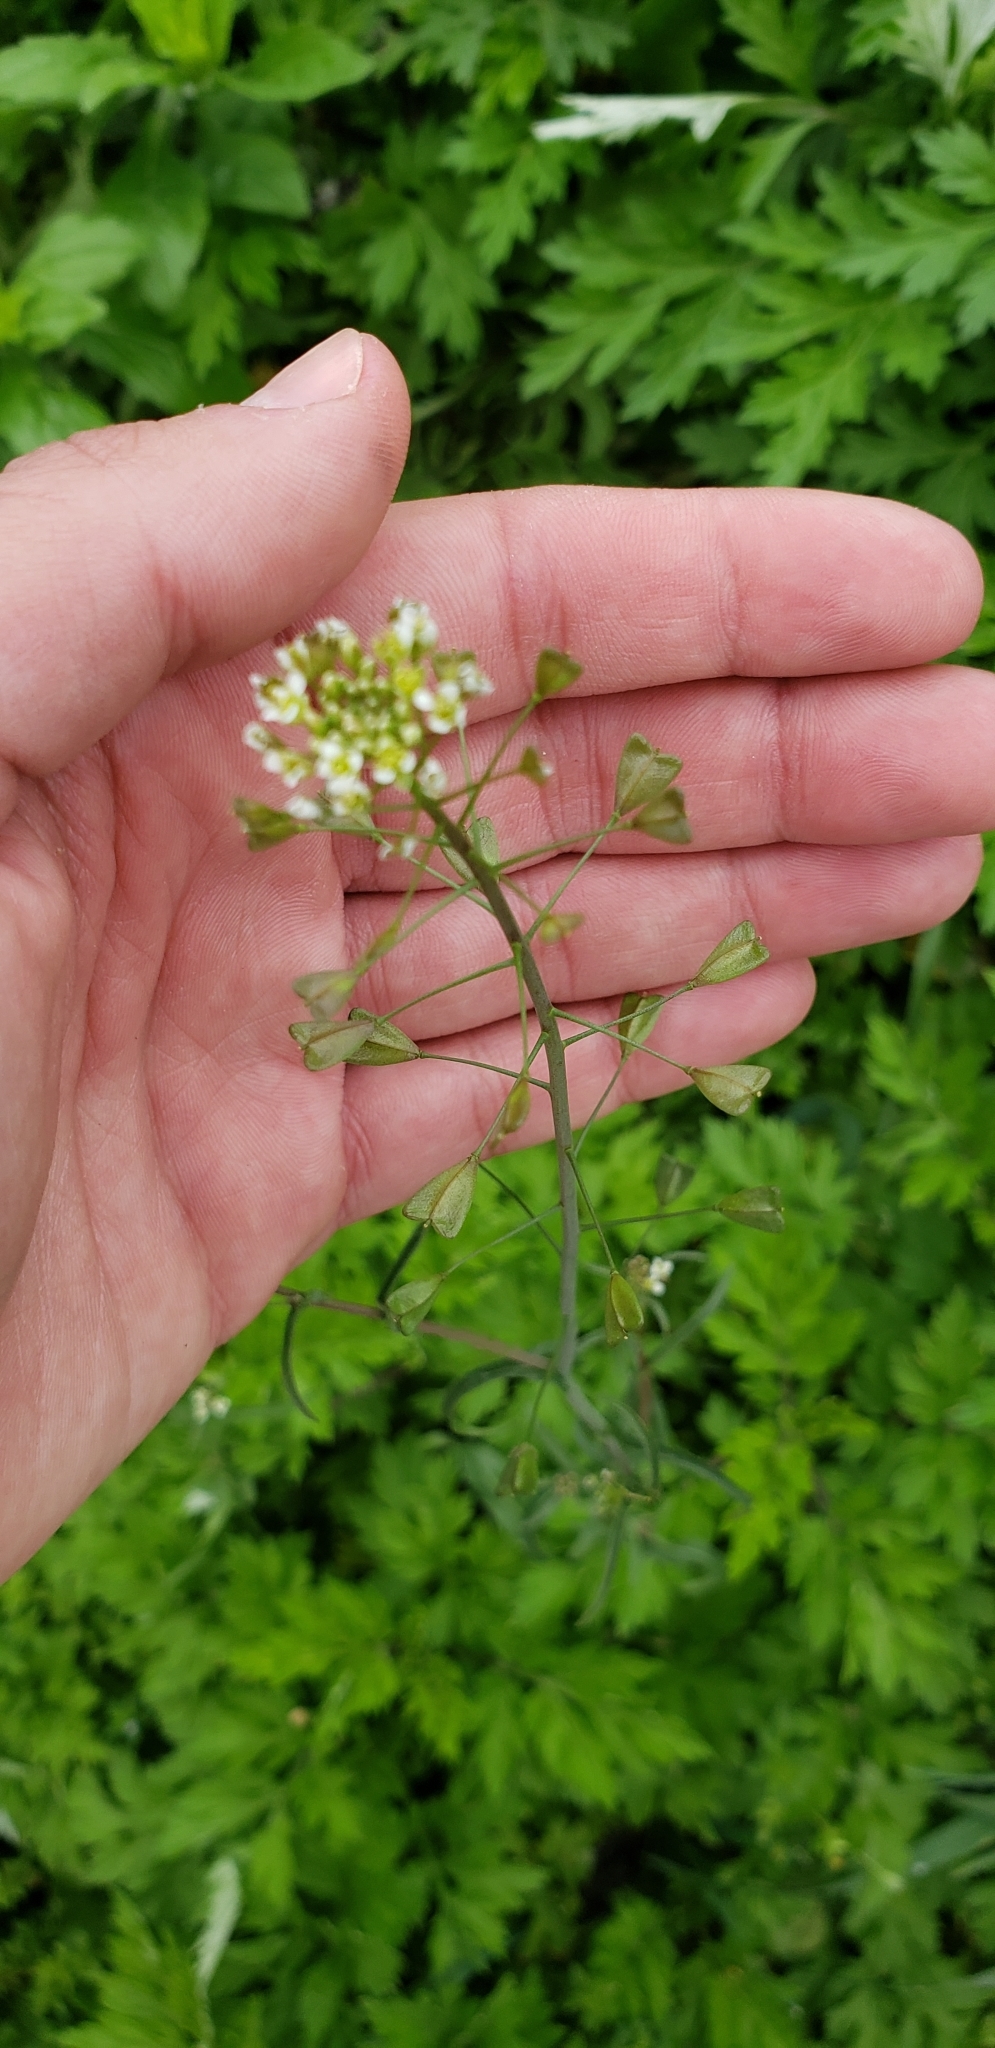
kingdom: Plantae
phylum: Tracheophyta
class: Magnoliopsida
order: Brassicales
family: Brassicaceae
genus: Capsella
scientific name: Capsella bursa-pastoris
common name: Shepherd's purse
